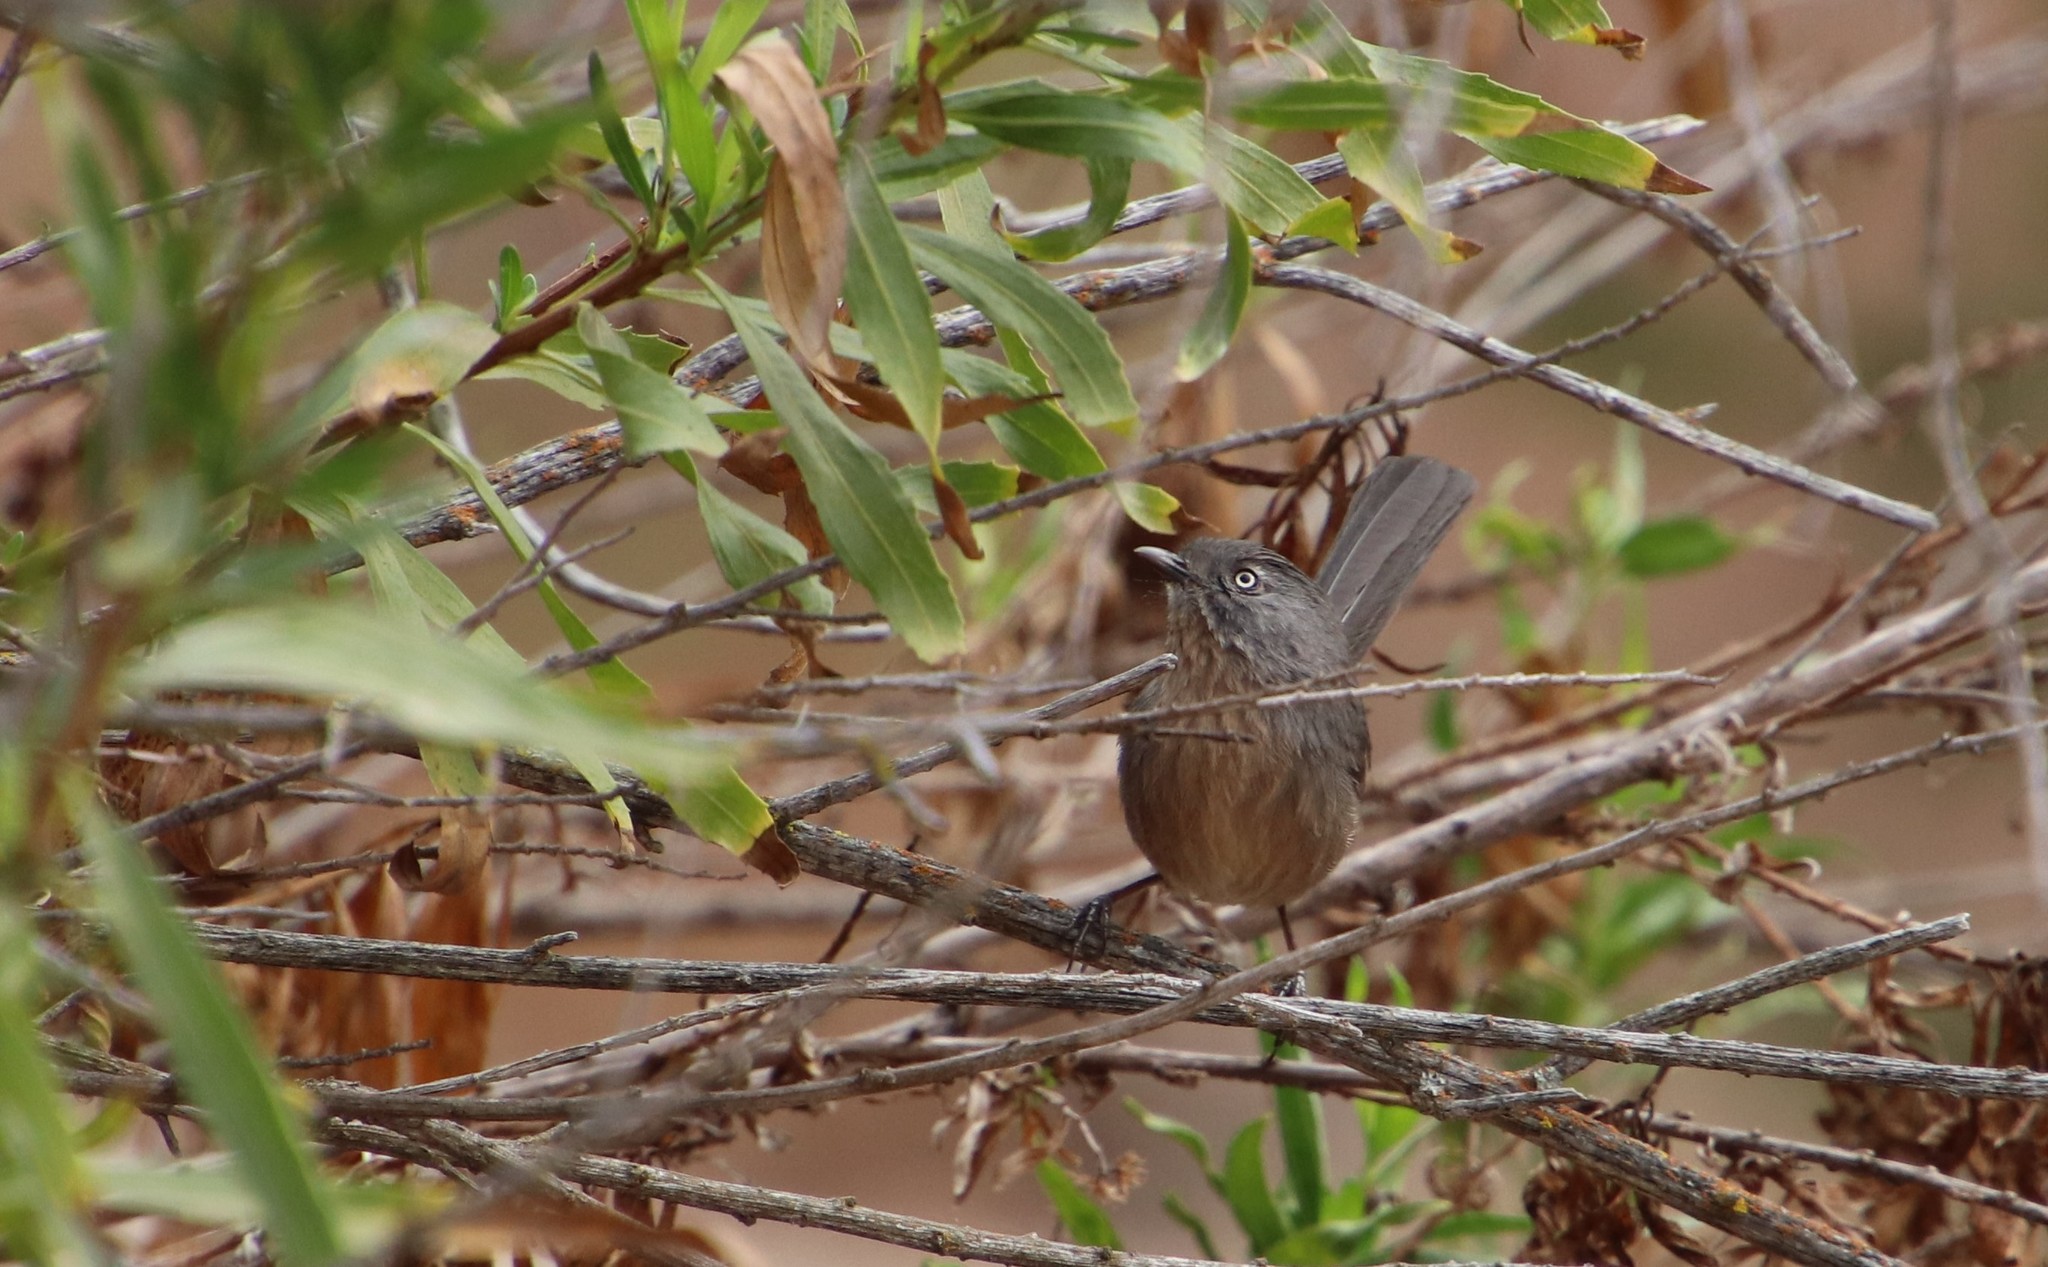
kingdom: Animalia
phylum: Chordata
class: Aves
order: Passeriformes
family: Sylviidae
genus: Chamaea
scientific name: Chamaea fasciata
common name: Wrentit
